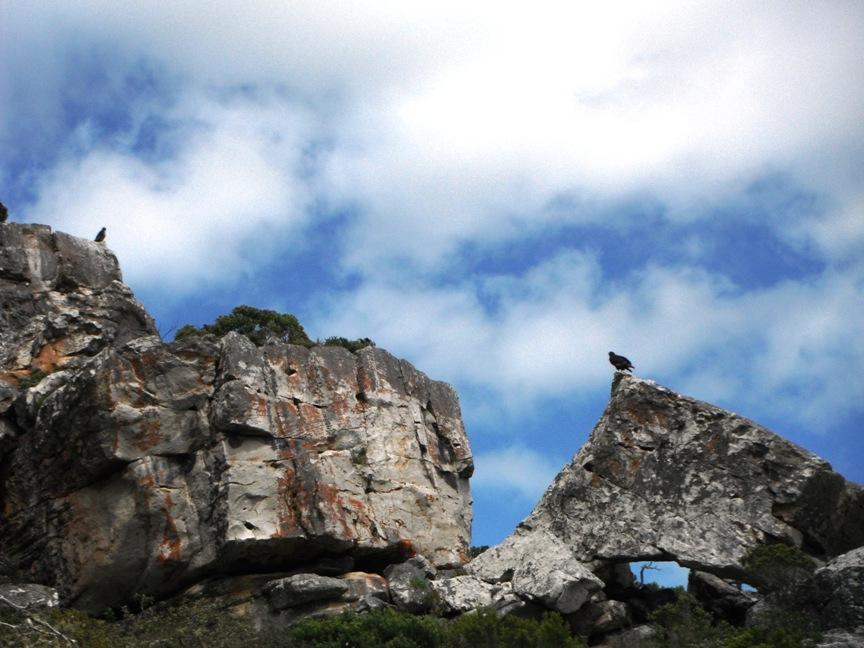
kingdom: Animalia
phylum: Chordata
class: Aves
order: Accipitriformes
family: Accipitridae
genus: Buteo
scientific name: Buteo rufofuscus
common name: Jackal buzzard
